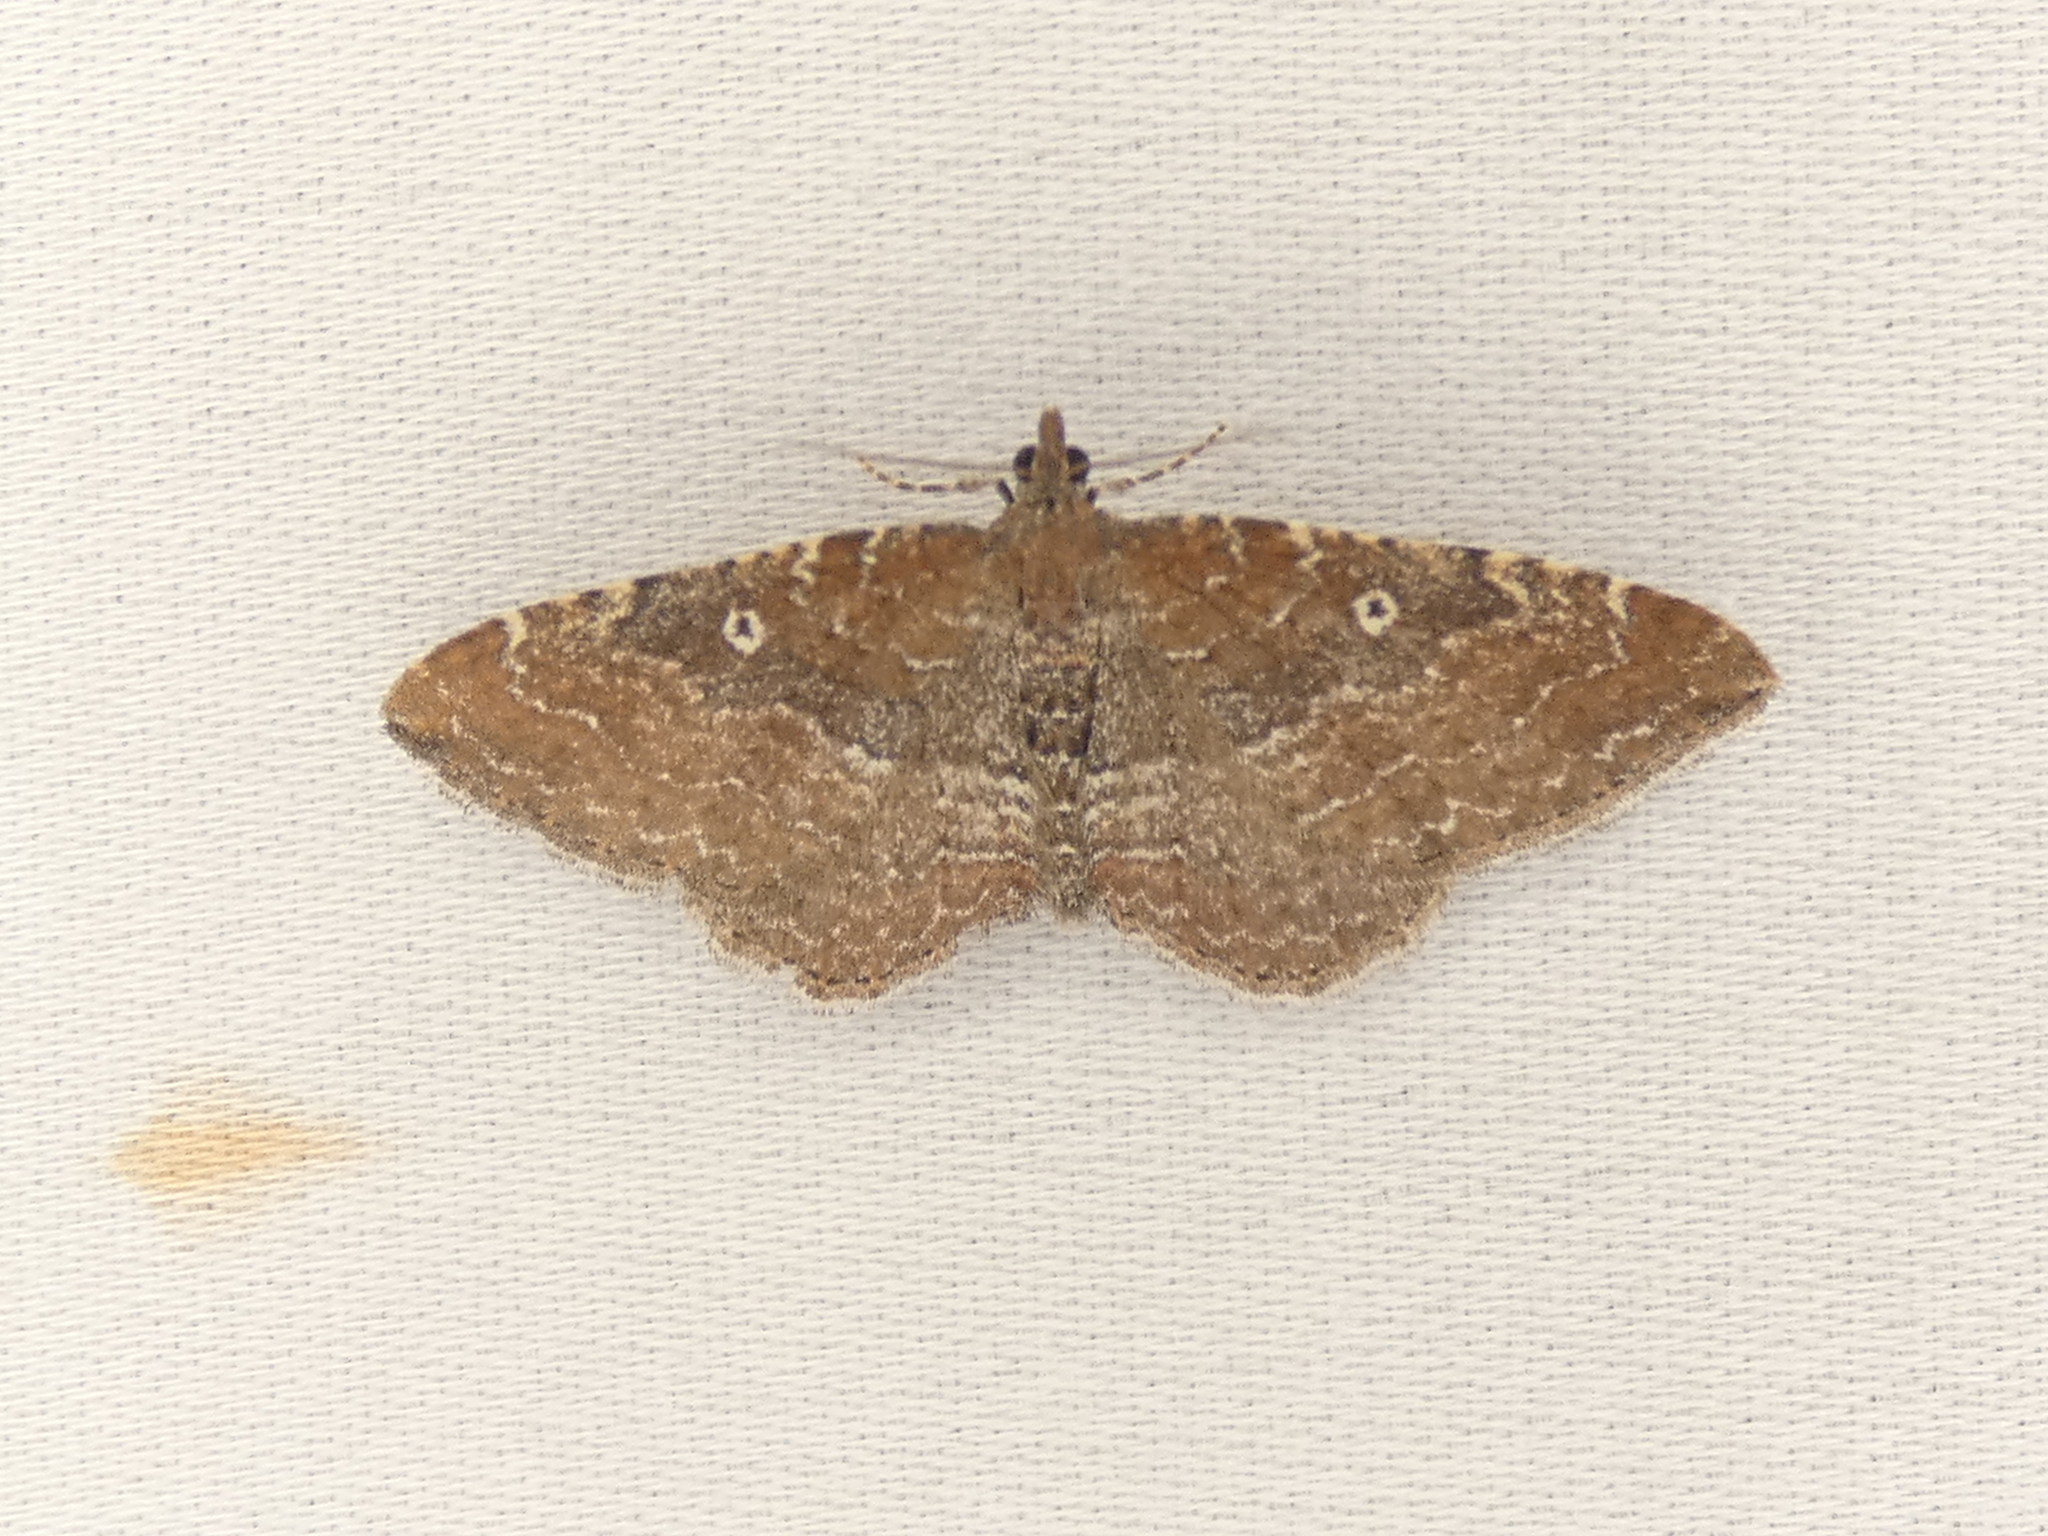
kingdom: Animalia
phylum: Arthropoda
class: Insecta
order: Lepidoptera
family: Geometridae
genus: Orthonama
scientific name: Orthonama obstipata
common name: The gem
